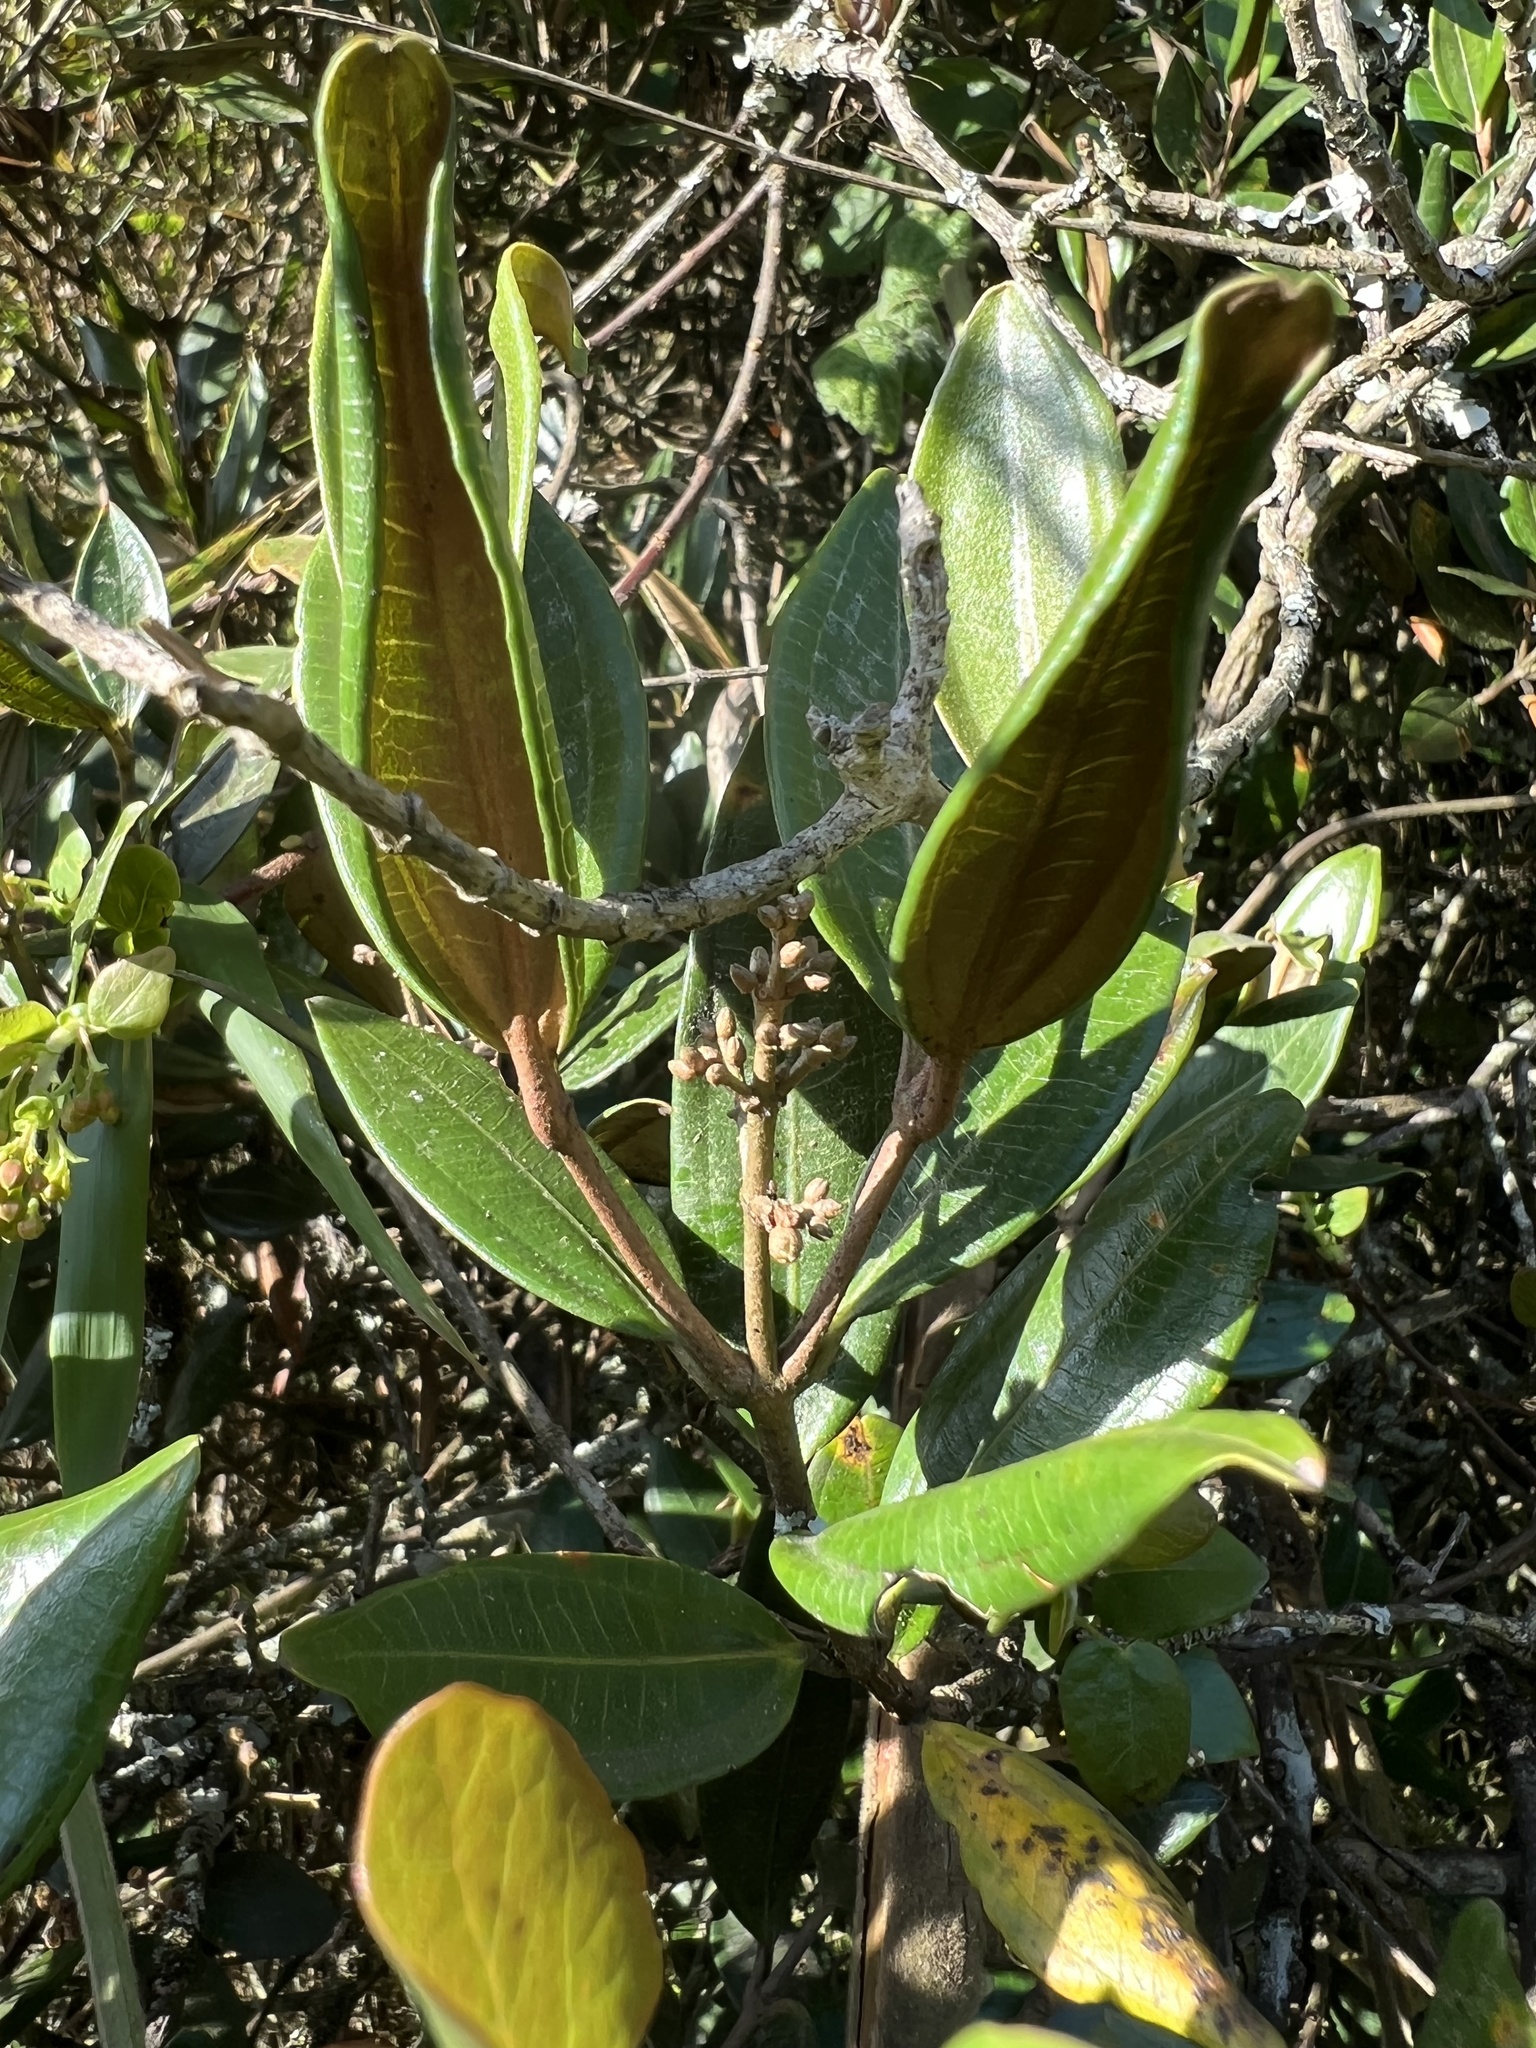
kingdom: Plantae
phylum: Tracheophyta
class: Magnoliopsida
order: Myrtales
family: Melastomataceae
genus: Miconia
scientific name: Miconia squamulosa
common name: Squamulose maya
